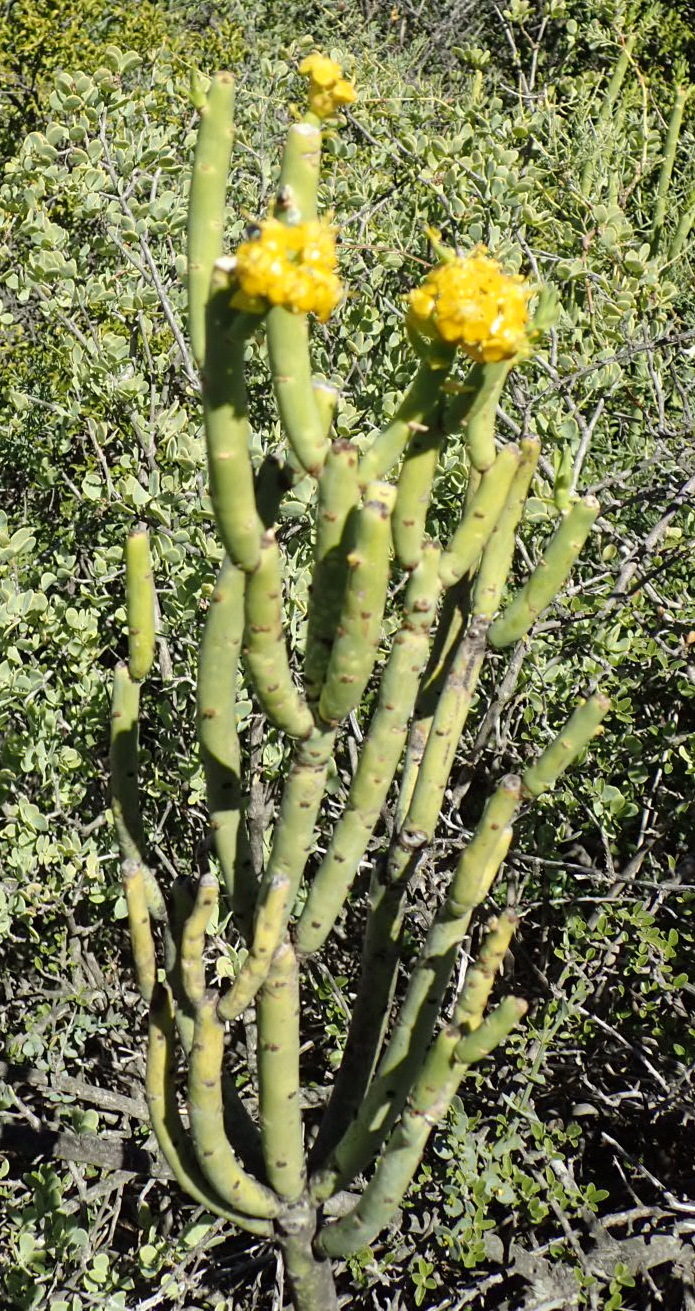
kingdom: Plantae
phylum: Tracheophyta
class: Magnoliopsida
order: Malpighiales
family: Euphorbiaceae
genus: Euphorbia
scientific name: Euphorbia mauritanica
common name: Jackal's-food
